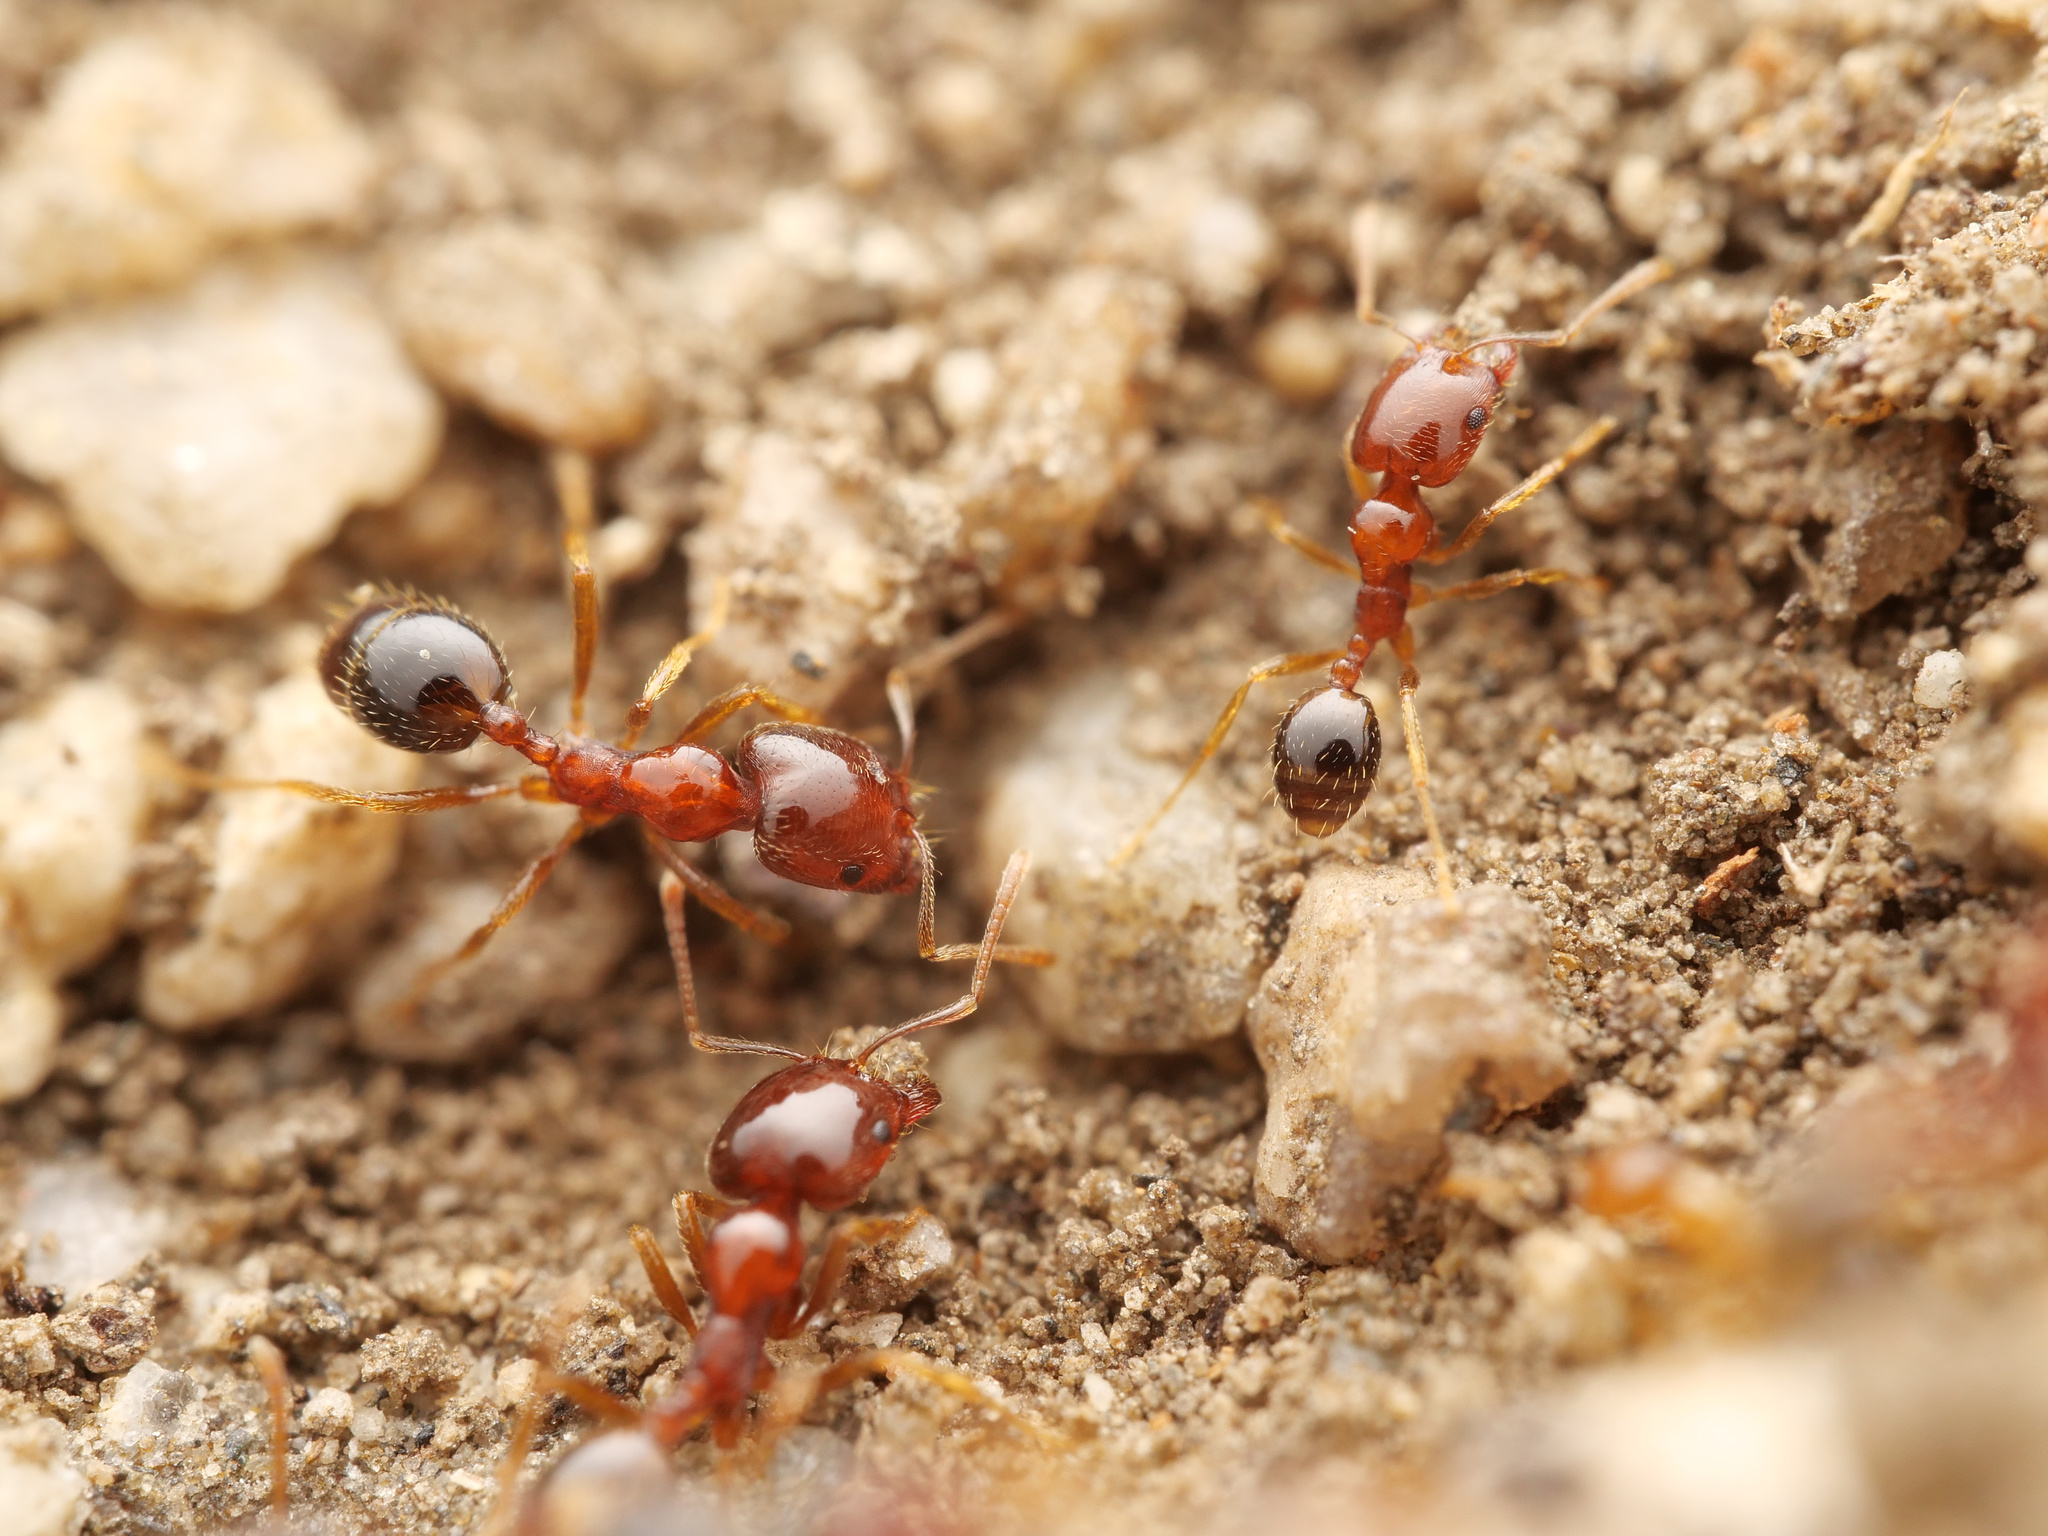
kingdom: Animalia
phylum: Arthropoda
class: Insecta
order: Hymenoptera
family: Formicidae
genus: Monomorium
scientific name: Monomorium perplexum
